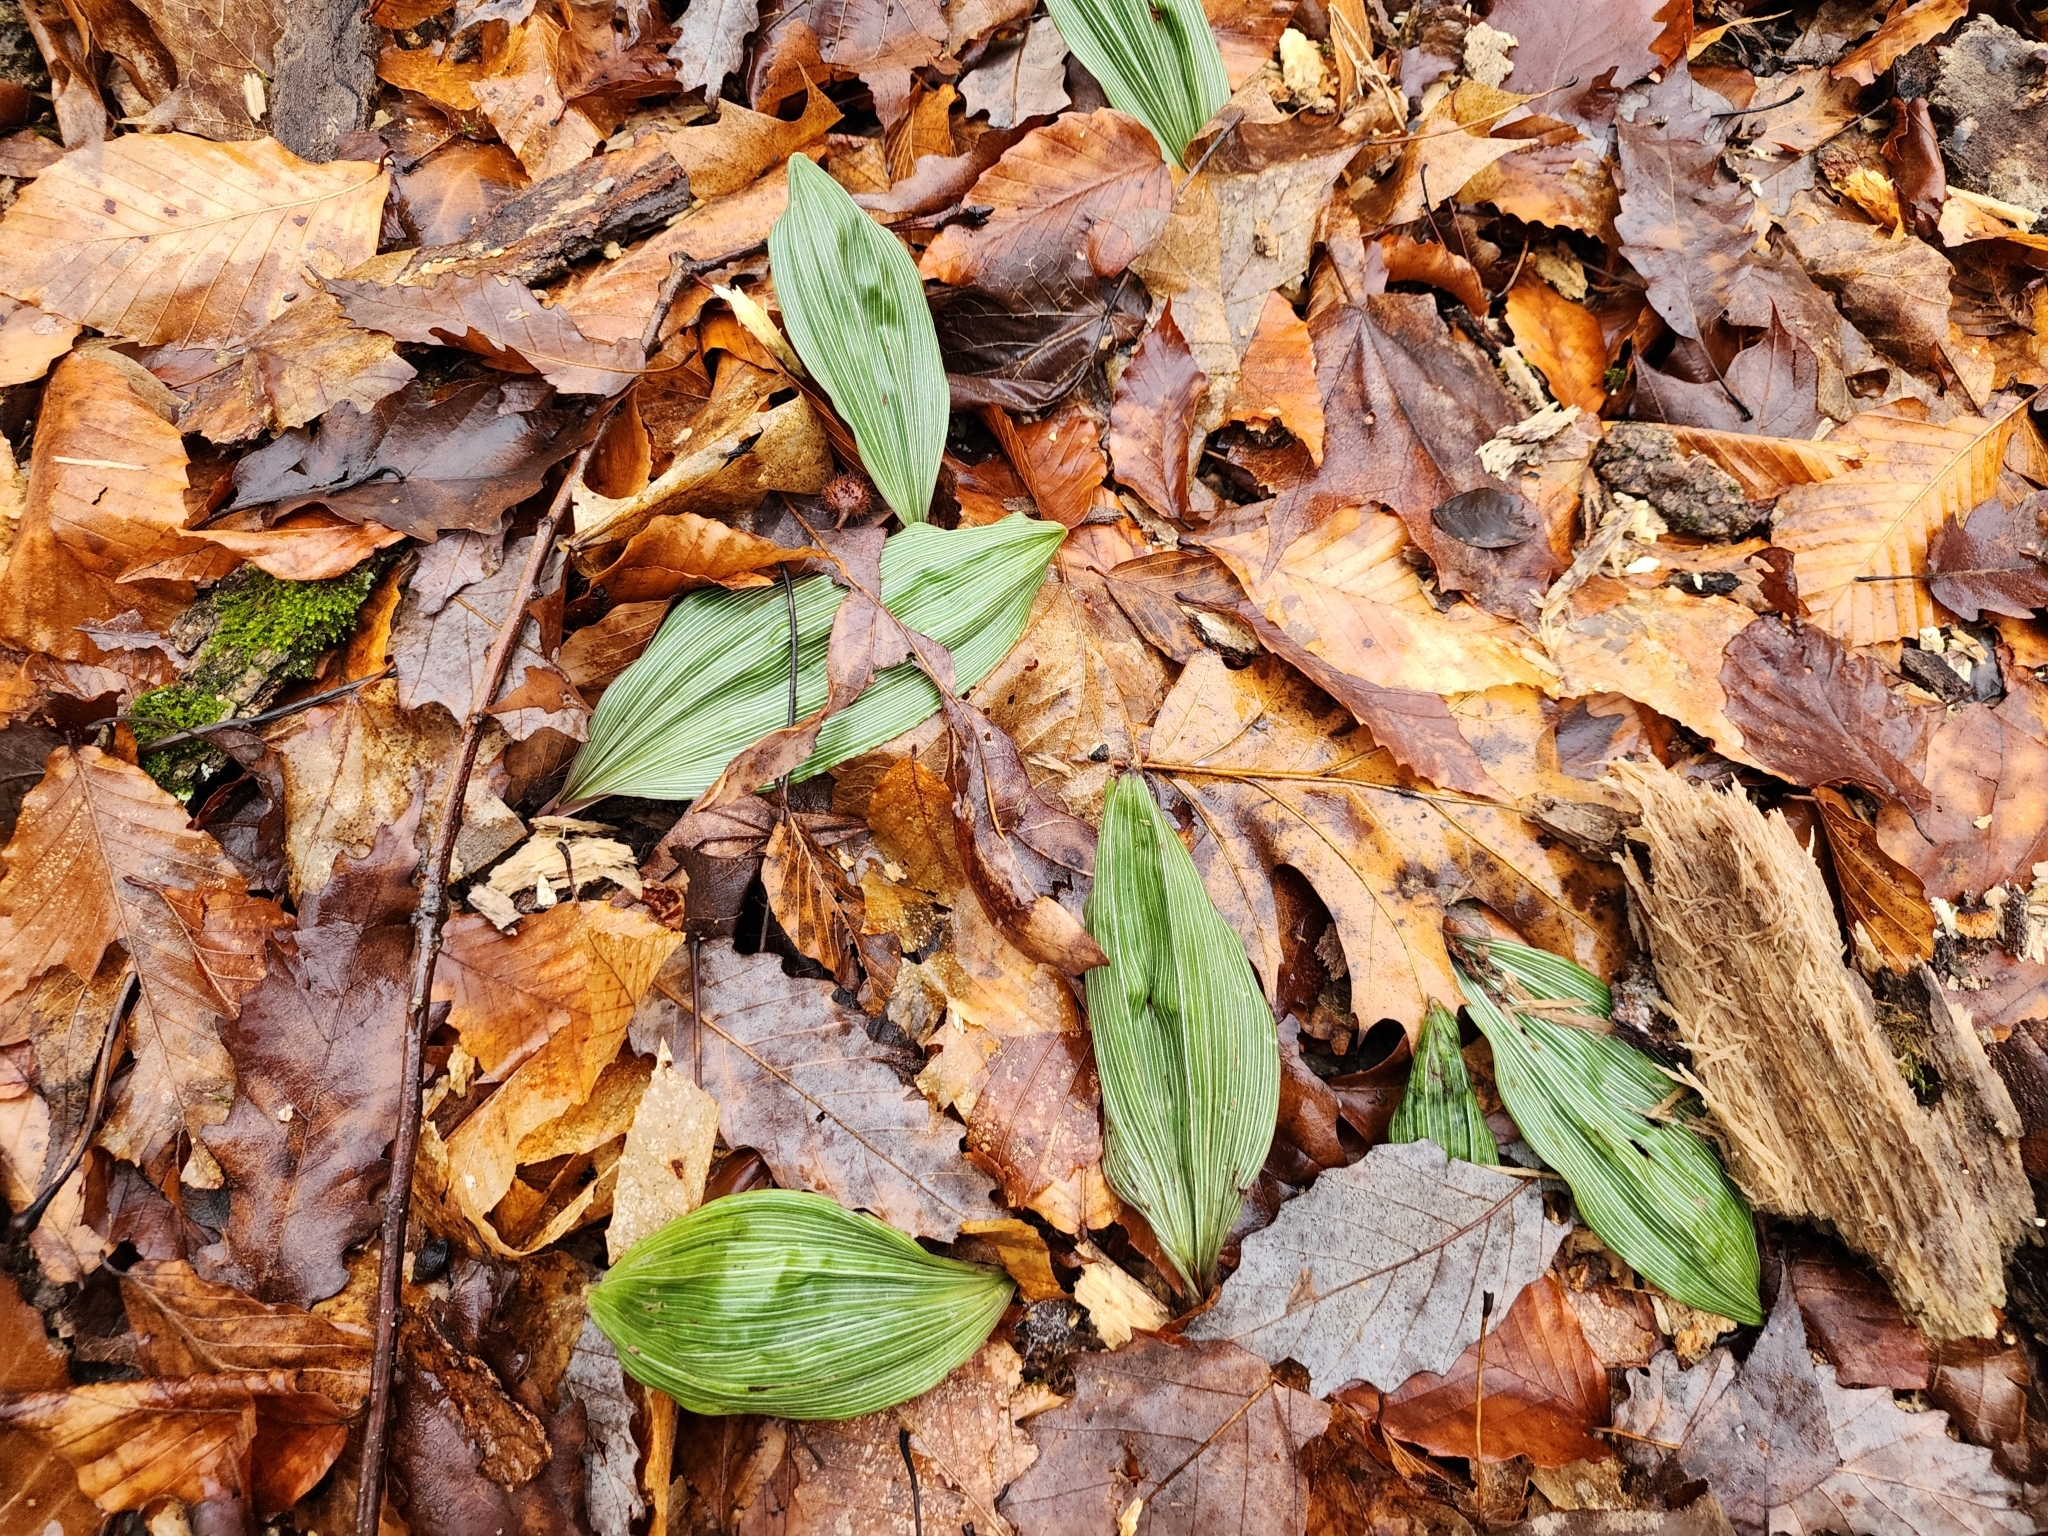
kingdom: Plantae
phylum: Tracheophyta
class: Liliopsida
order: Asparagales
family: Orchidaceae
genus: Aplectrum
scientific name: Aplectrum hyemale
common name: Adam-and-eve
